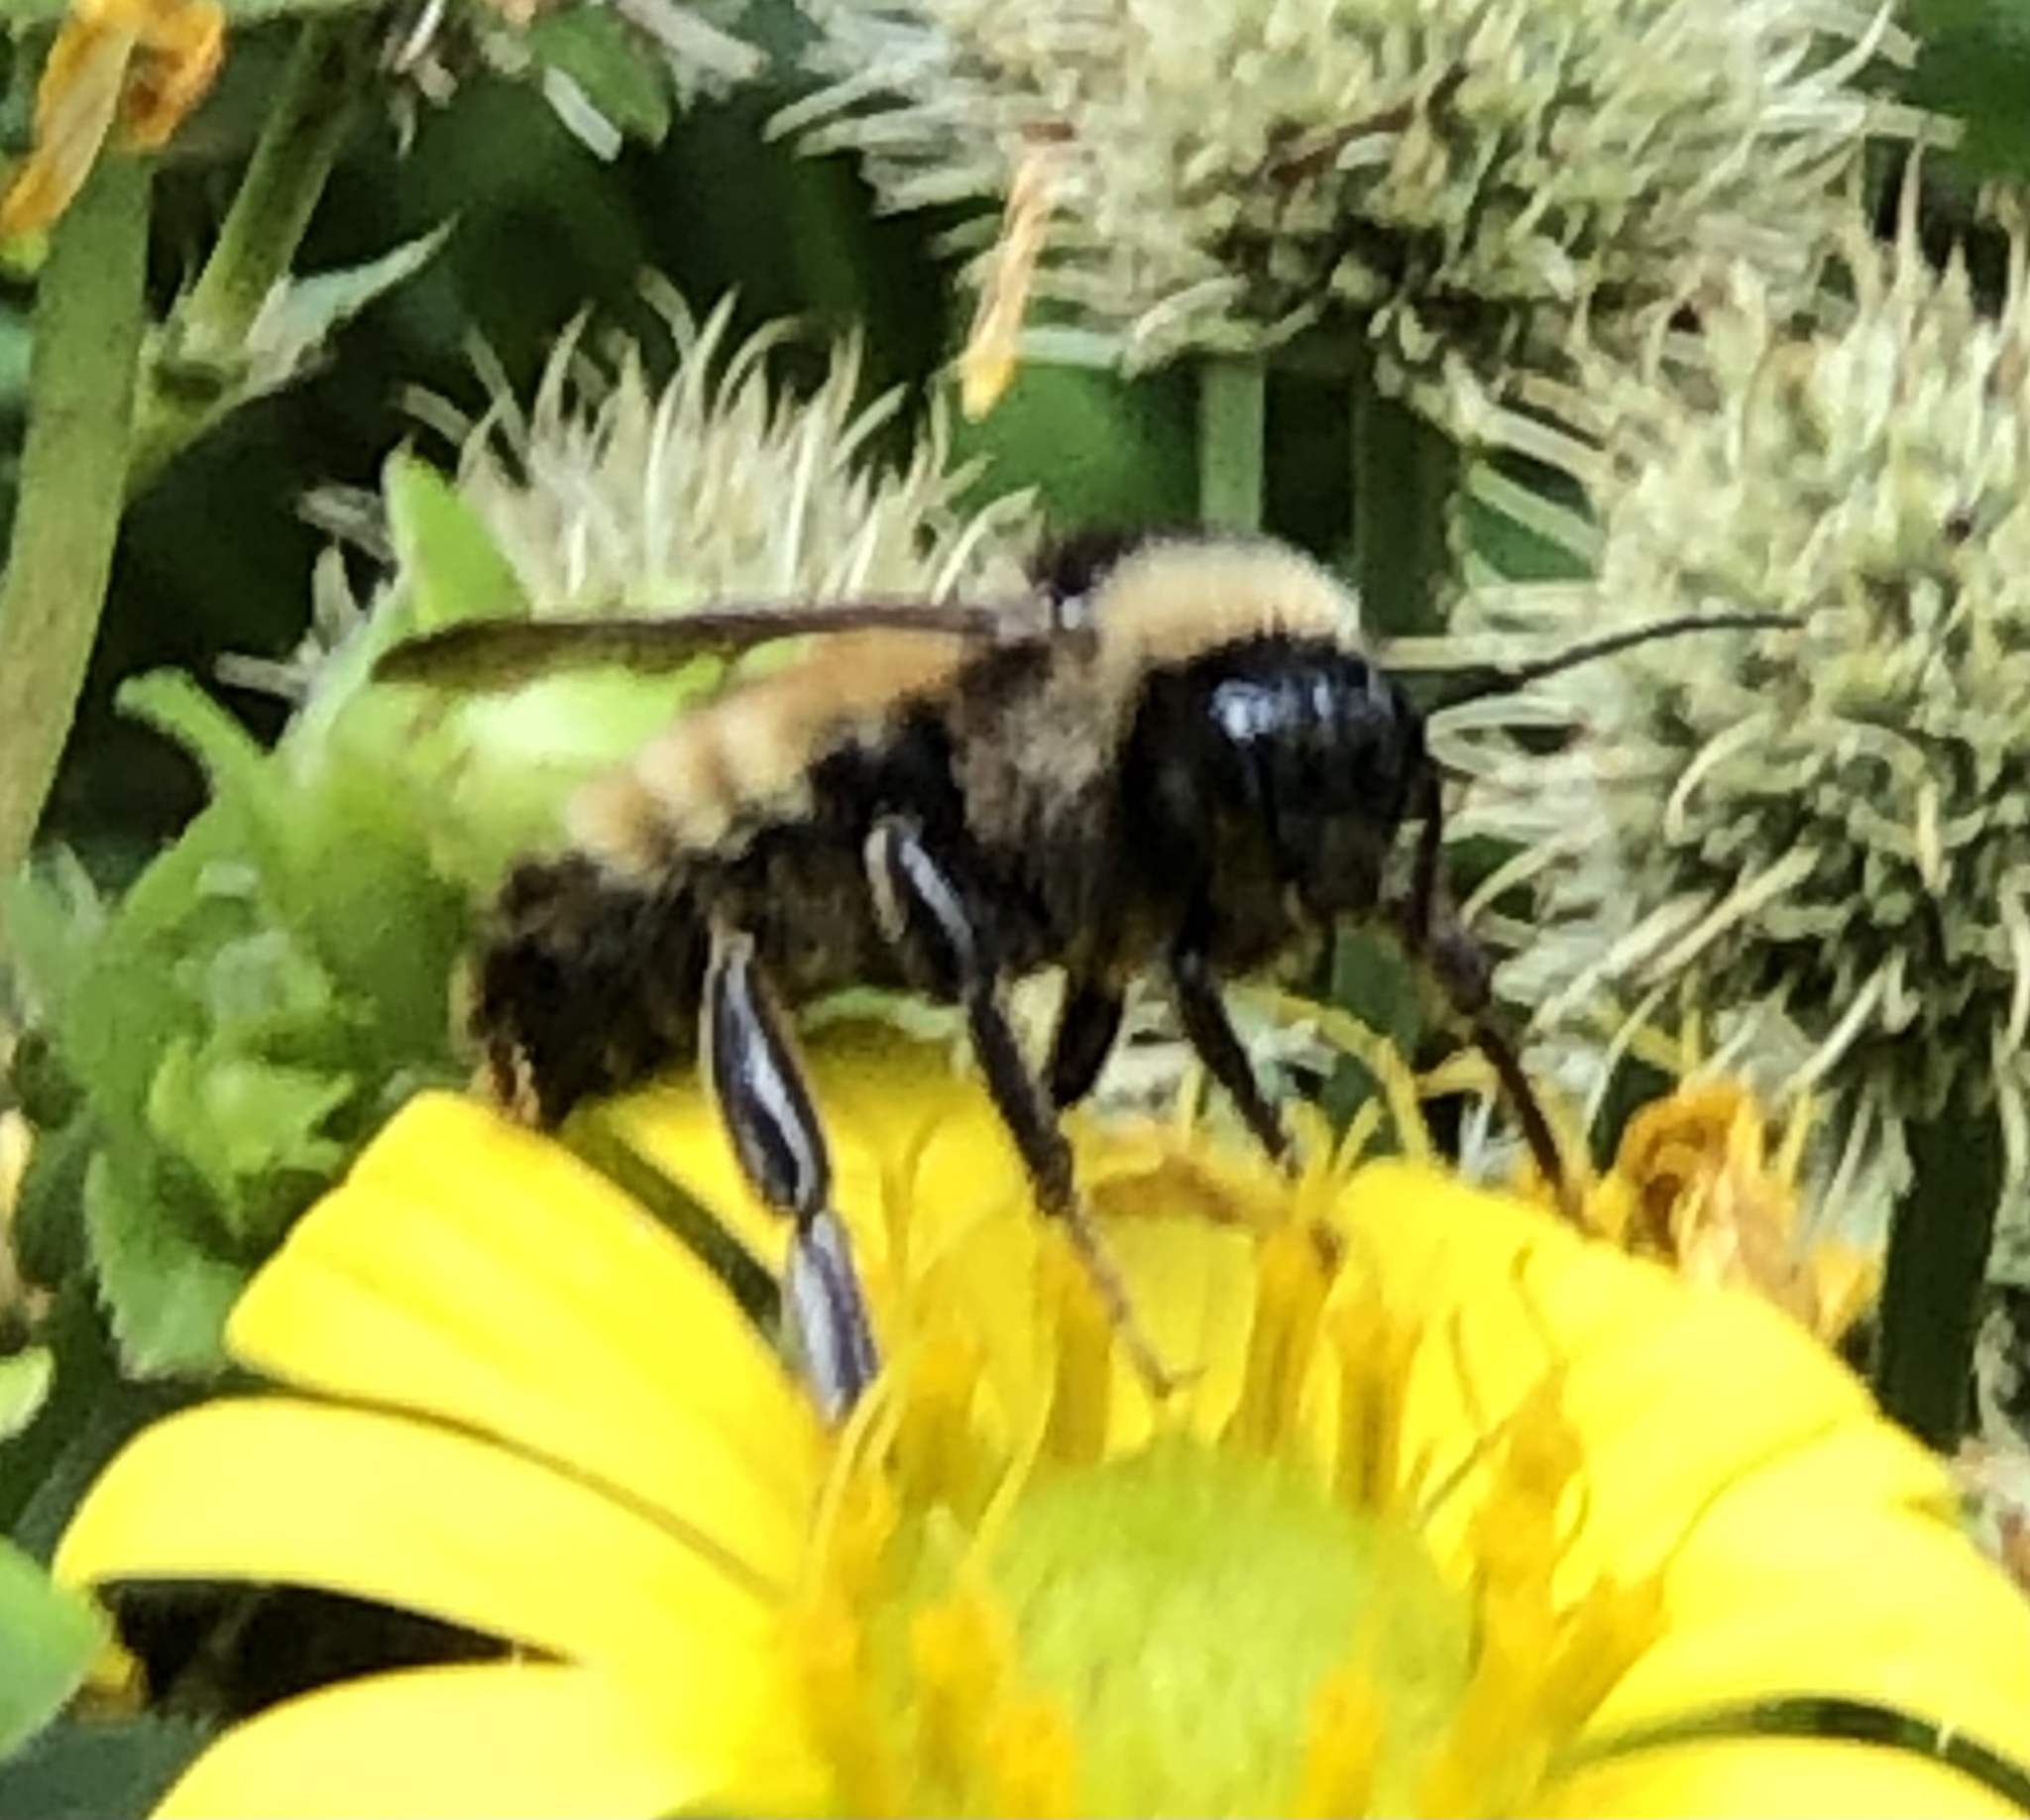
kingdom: Animalia
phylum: Arthropoda
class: Insecta
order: Hymenoptera
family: Apidae
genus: Bombus
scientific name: Bombus pensylvanicus
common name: Bumble bee
